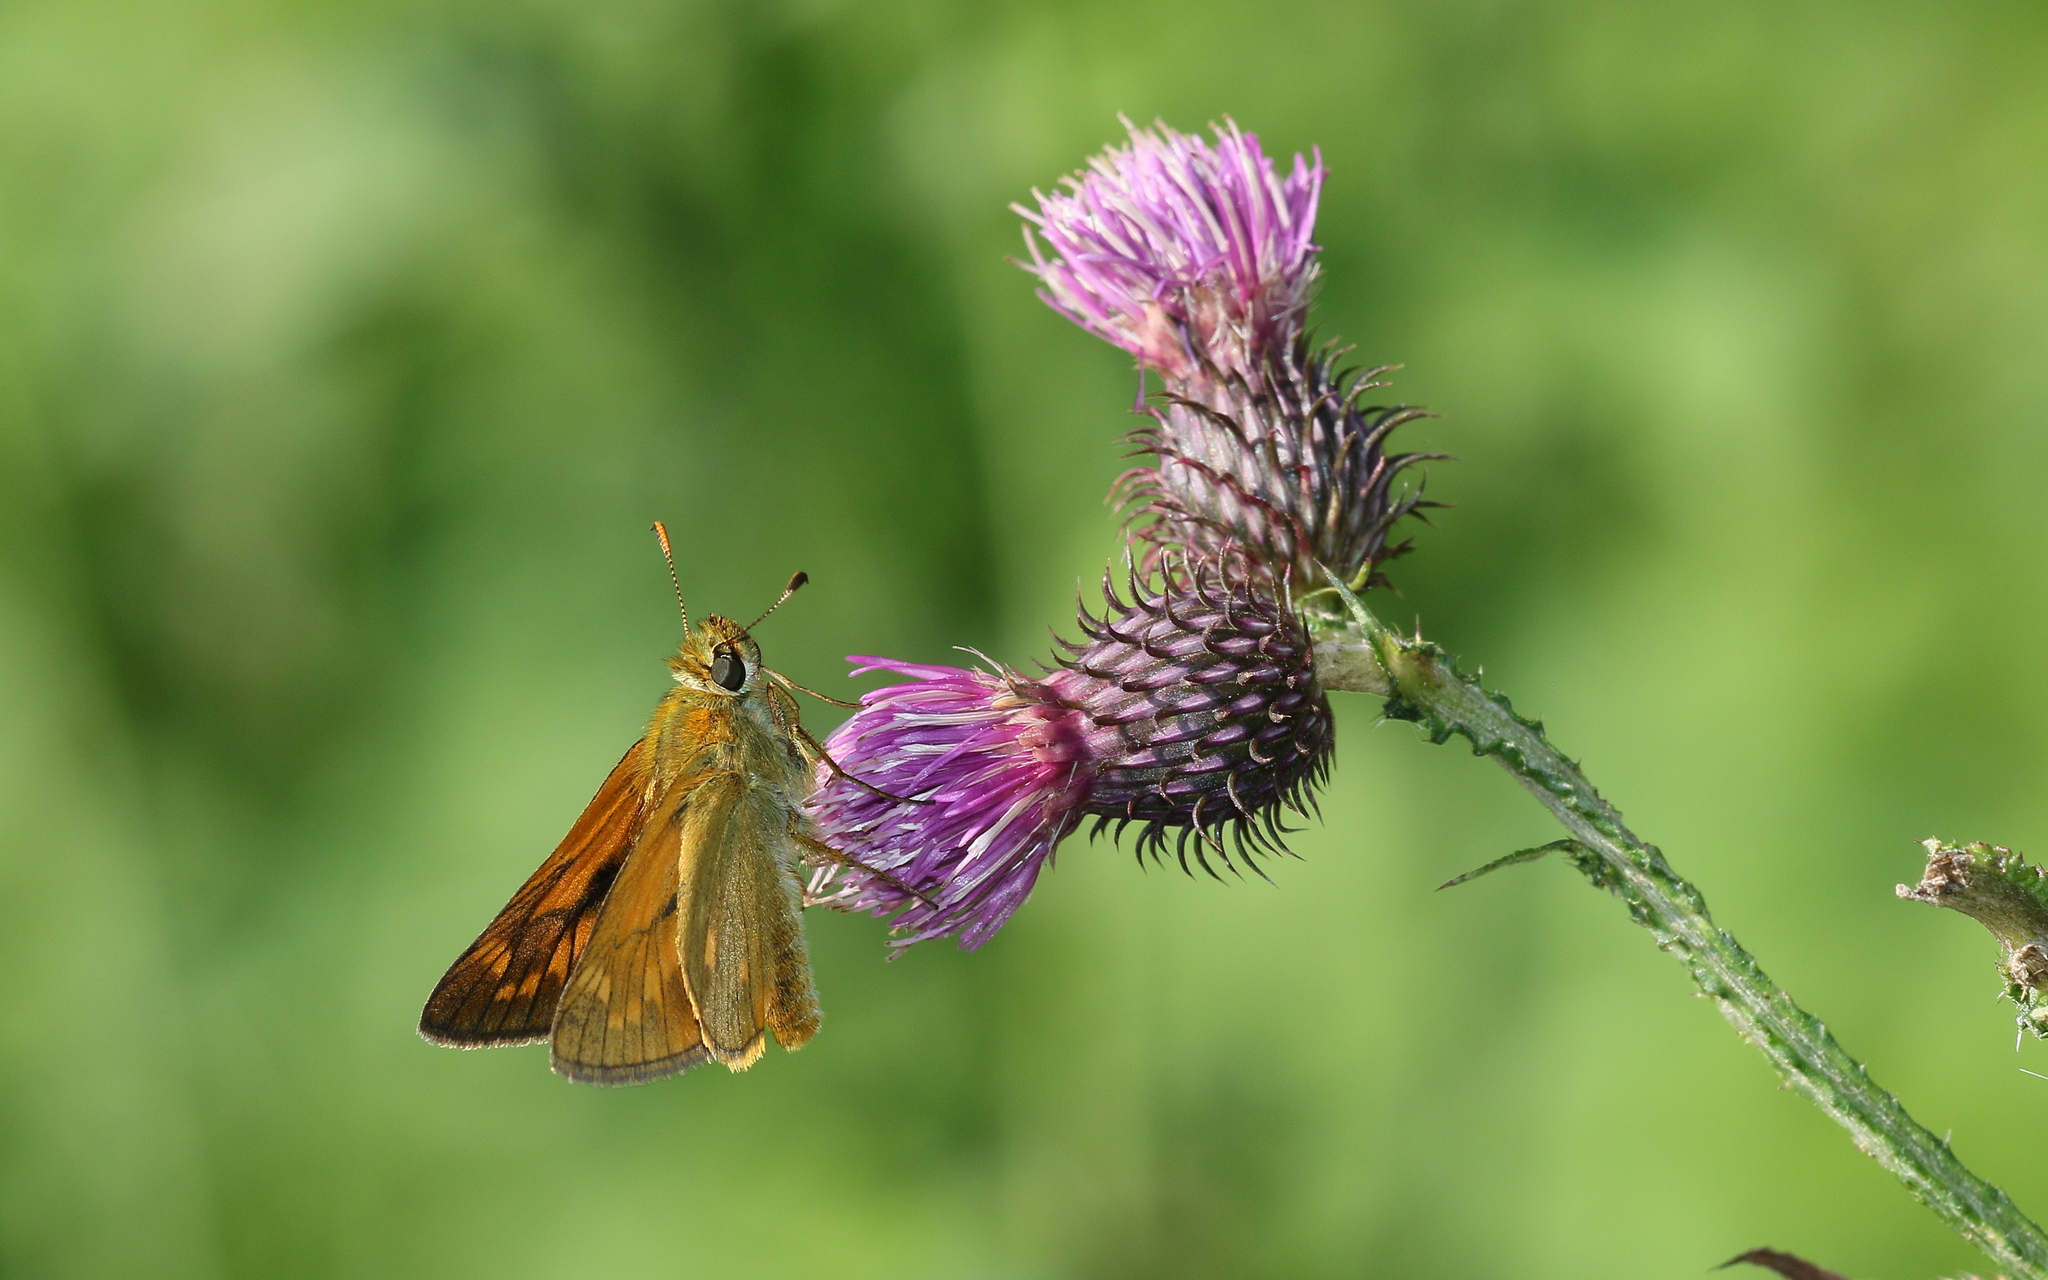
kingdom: Animalia
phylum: Arthropoda
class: Insecta
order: Lepidoptera
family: Hesperiidae
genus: Ochlodes
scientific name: Ochlodes venata
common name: Large skipper
